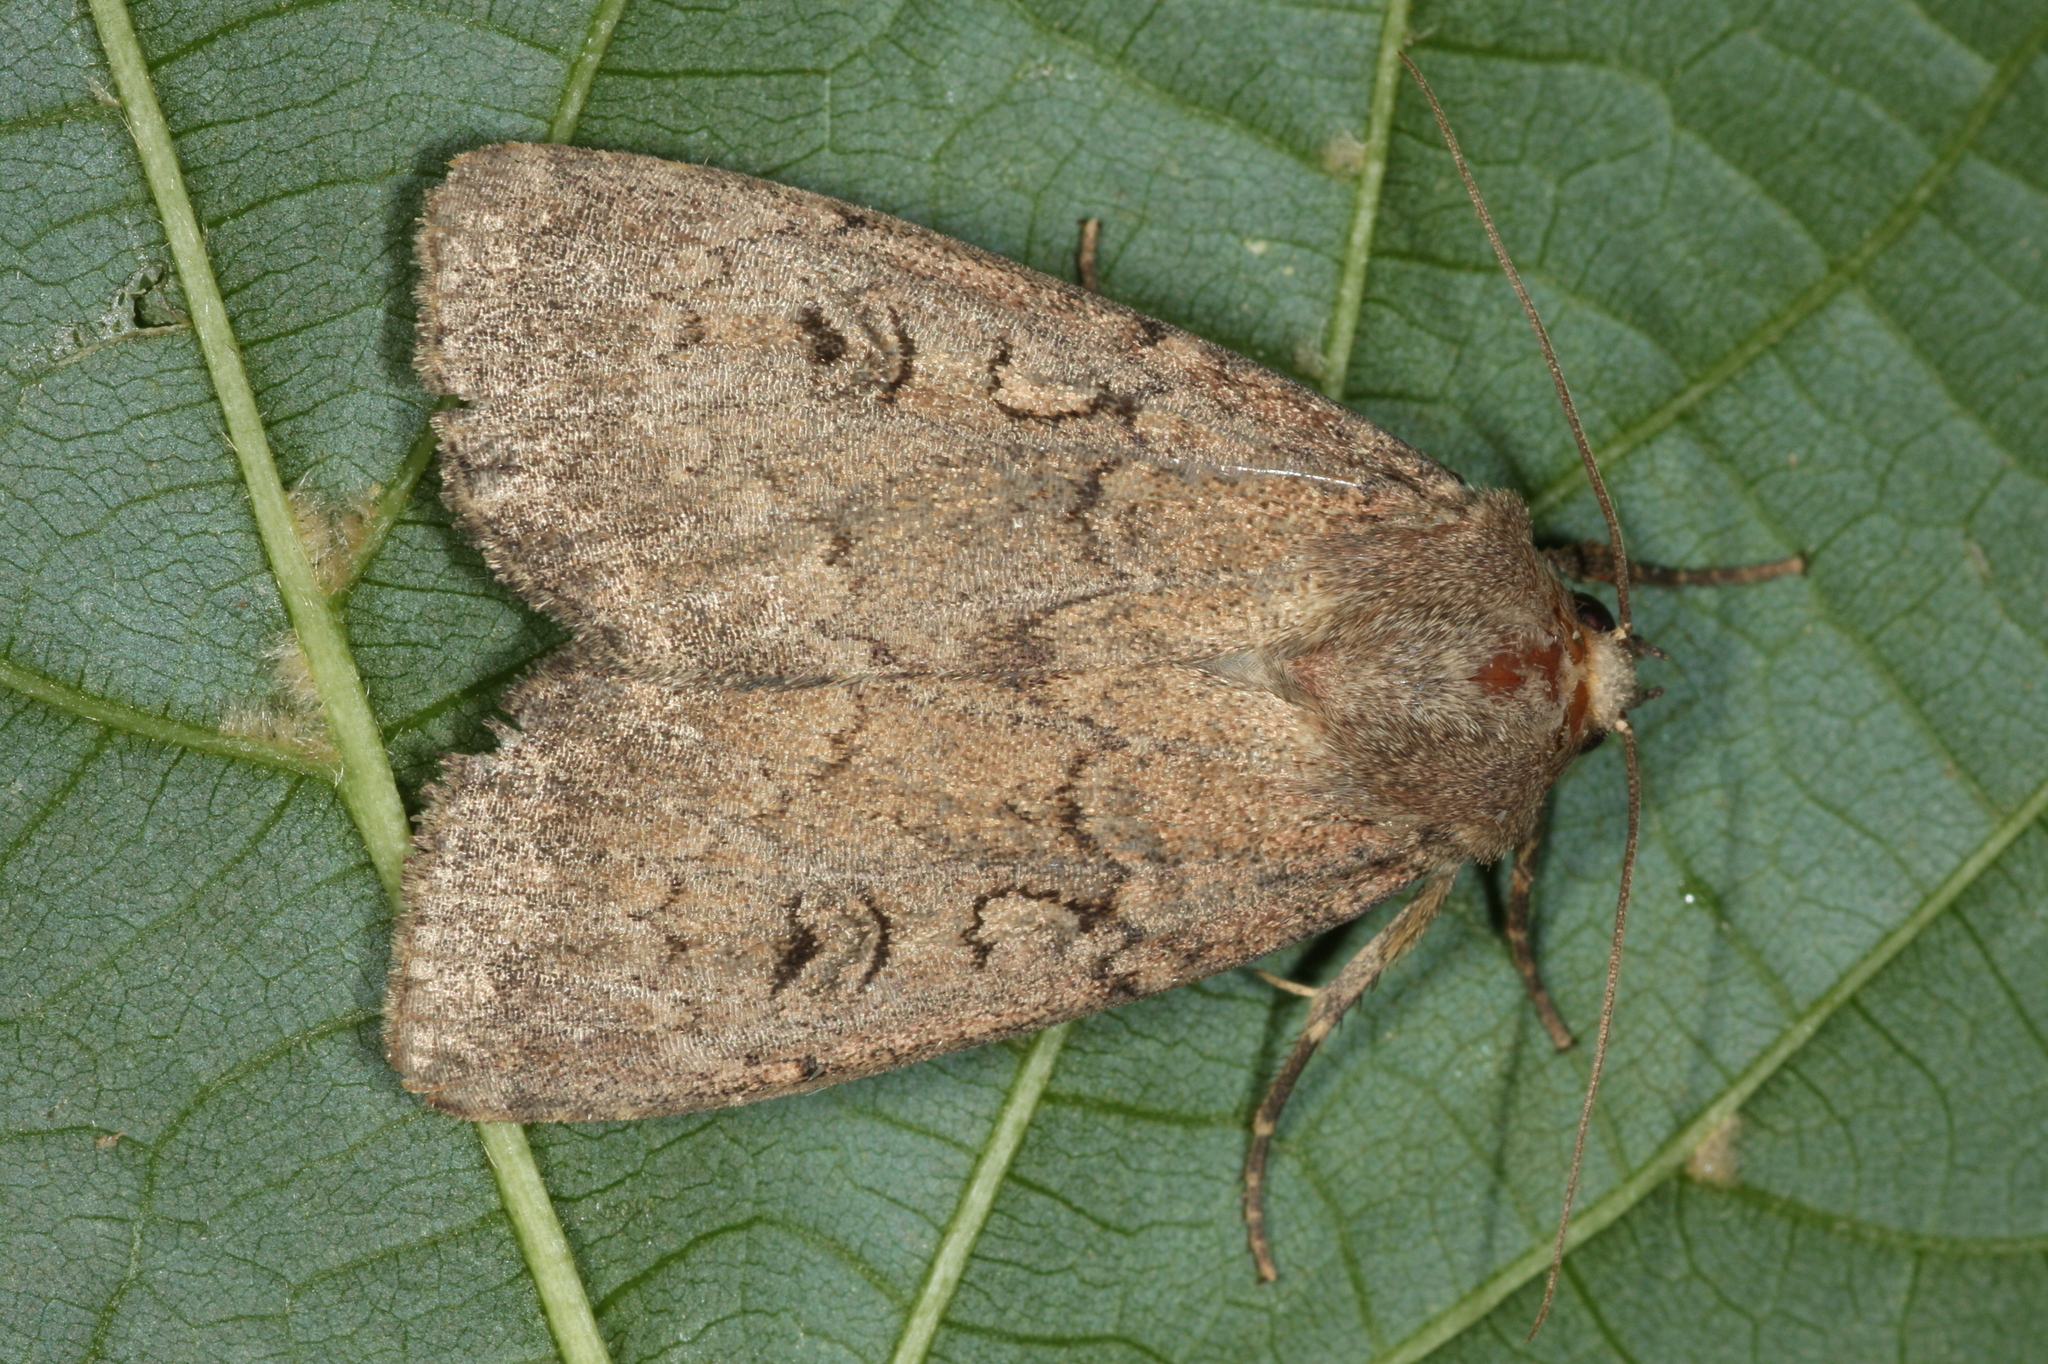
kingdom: Animalia
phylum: Arthropoda
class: Insecta
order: Lepidoptera
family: Noctuidae
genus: Graphiphora
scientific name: Graphiphora augur
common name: Double dart
